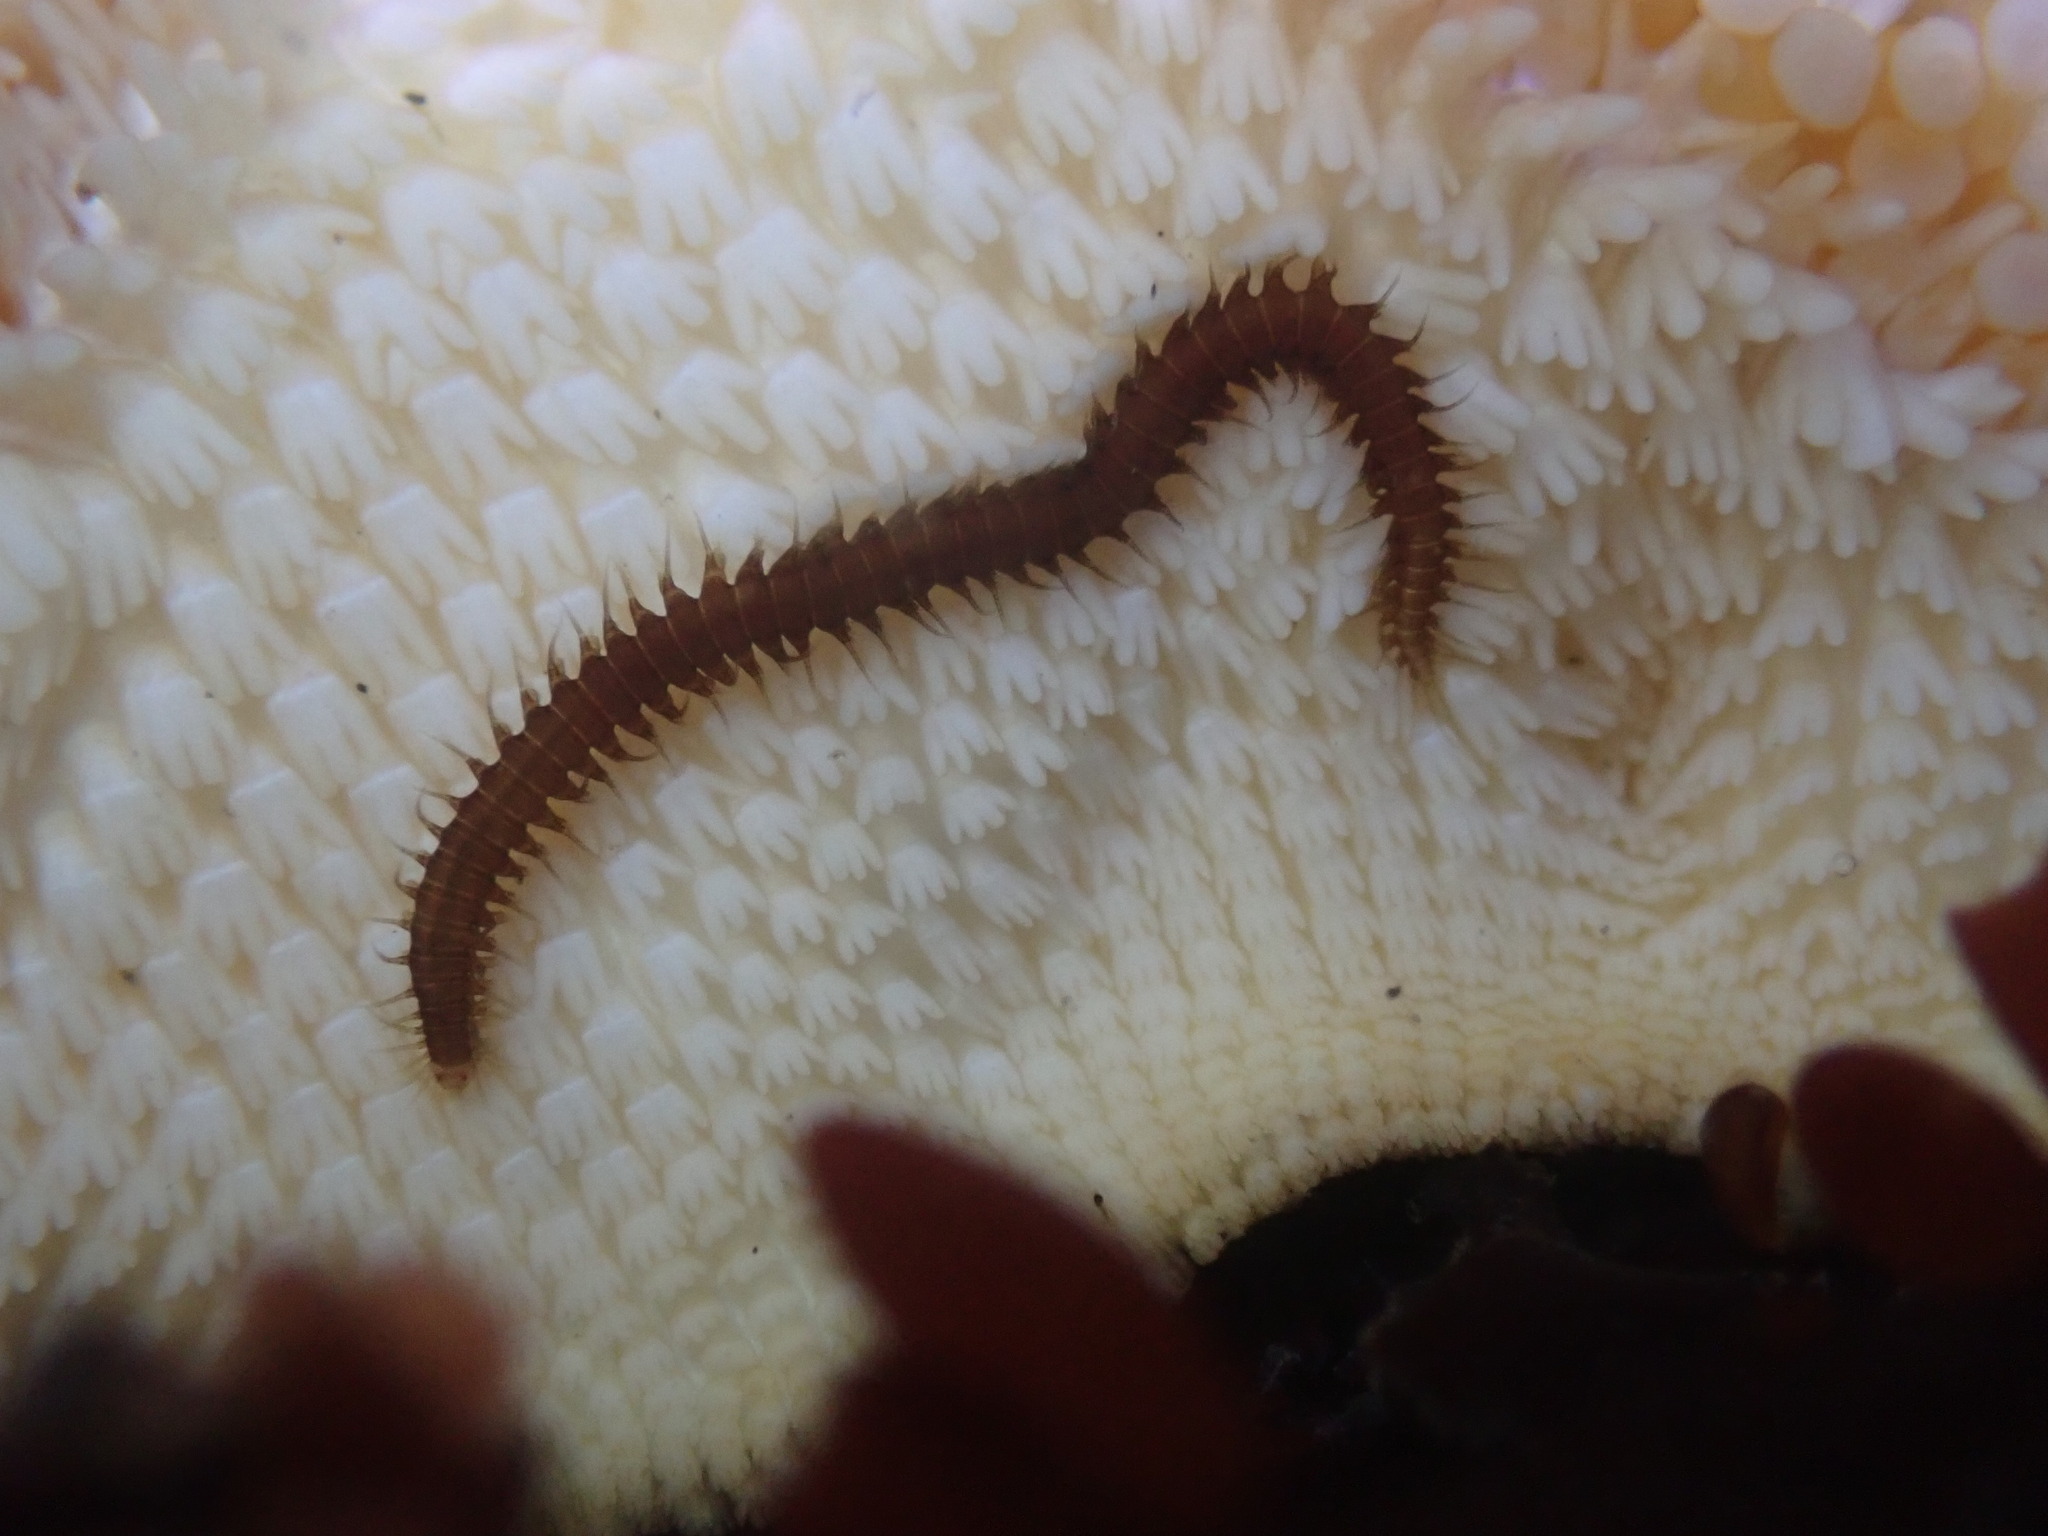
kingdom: Animalia
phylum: Annelida
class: Polychaeta
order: Phyllodocida
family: Hesionidae
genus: Oxydromus
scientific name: Oxydromus pugettensis
